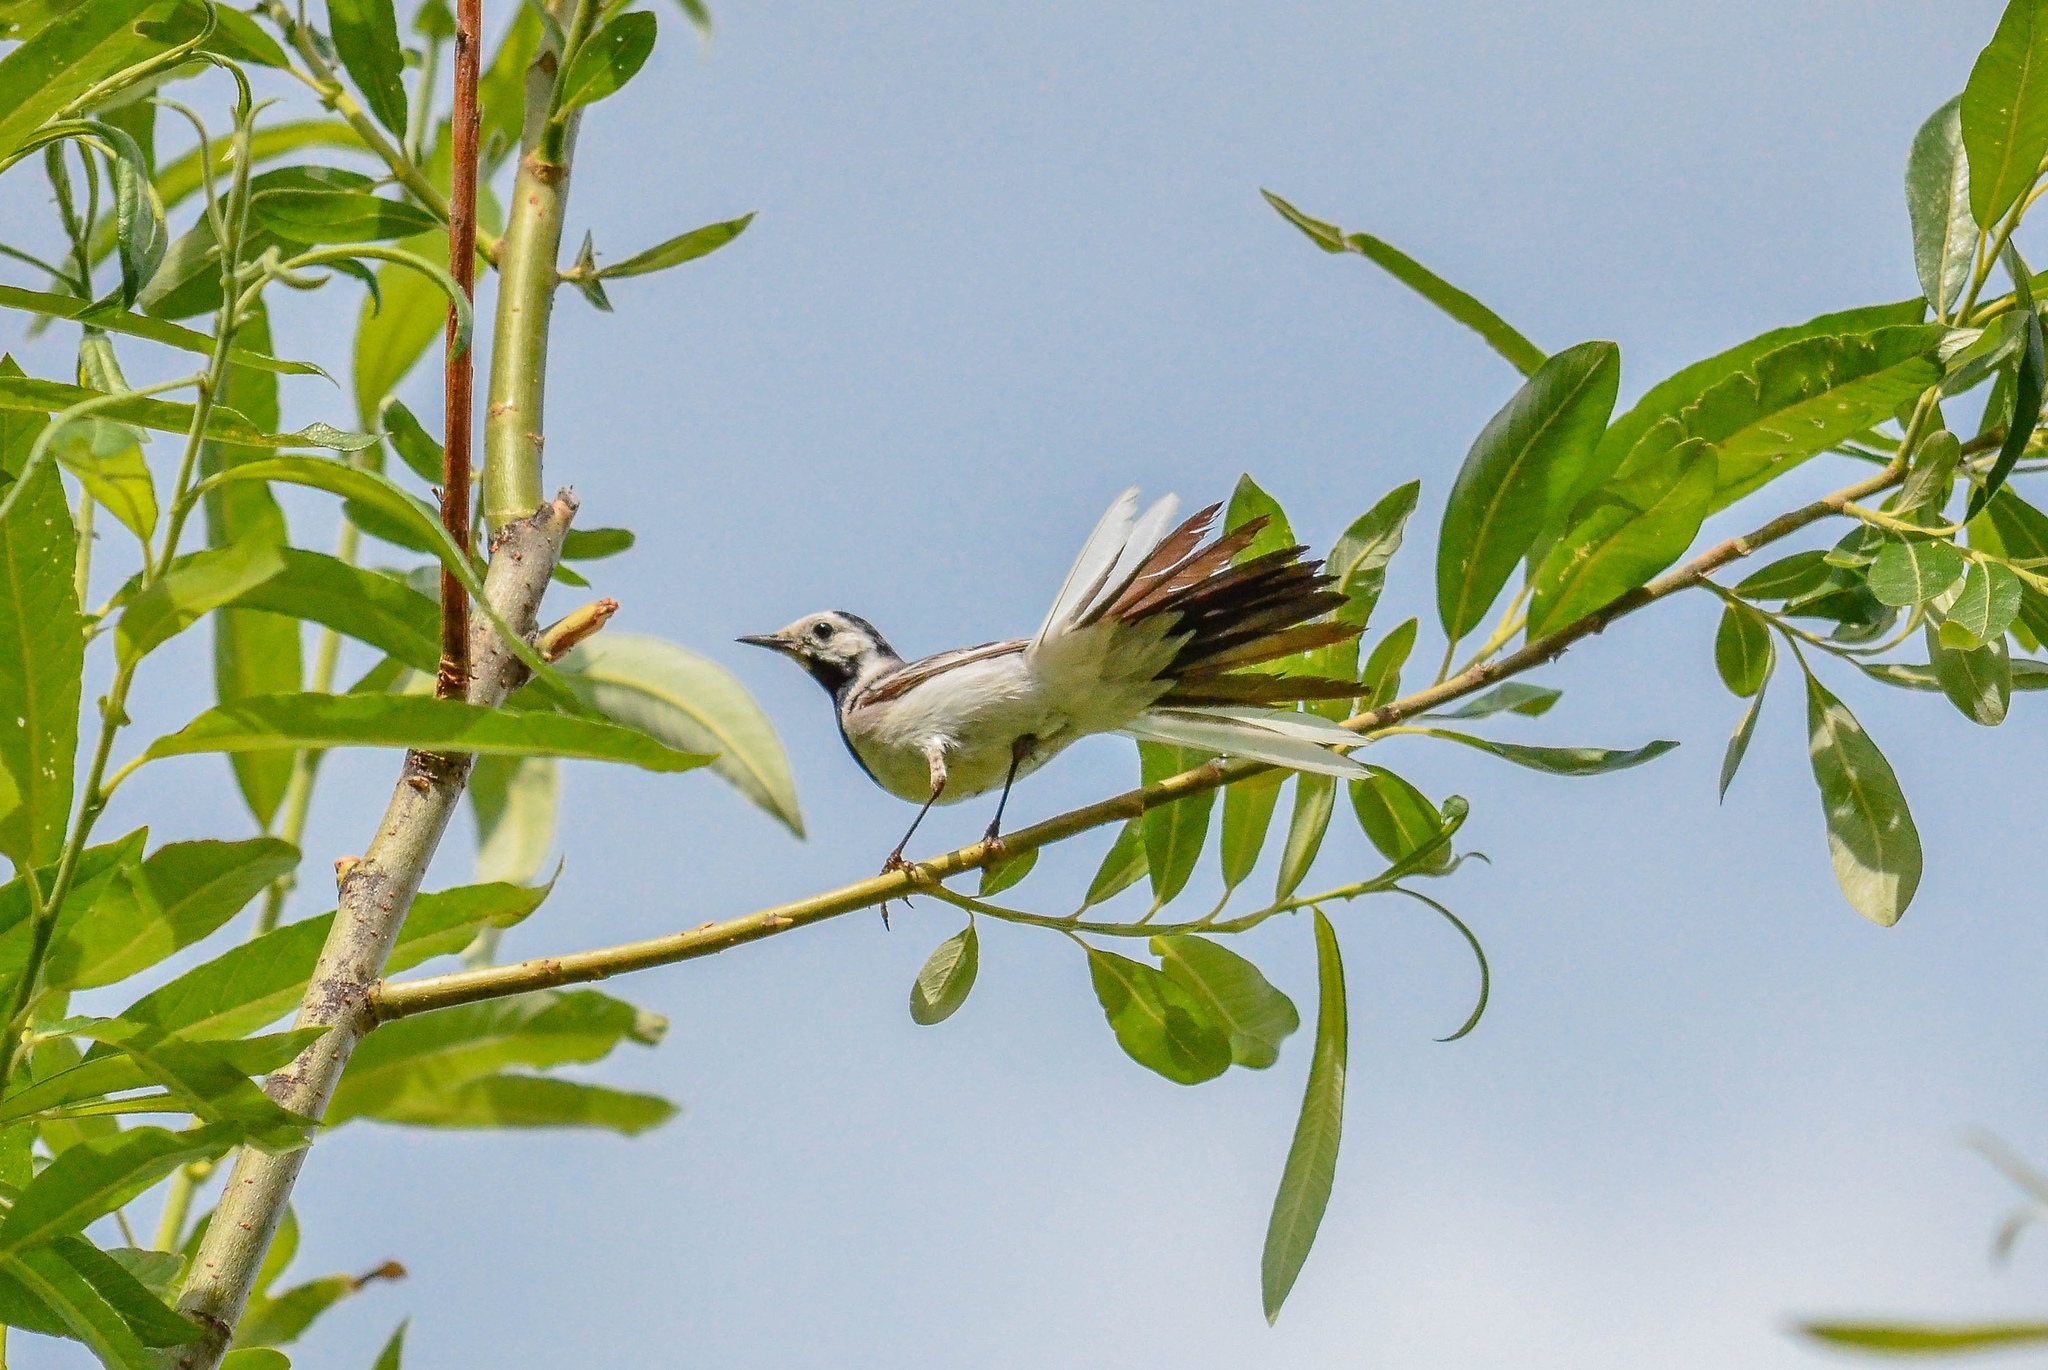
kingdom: Animalia
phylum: Chordata
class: Aves
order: Passeriformes
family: Motacillidae
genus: Motacilla
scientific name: Motacilla alba
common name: White wagtail
